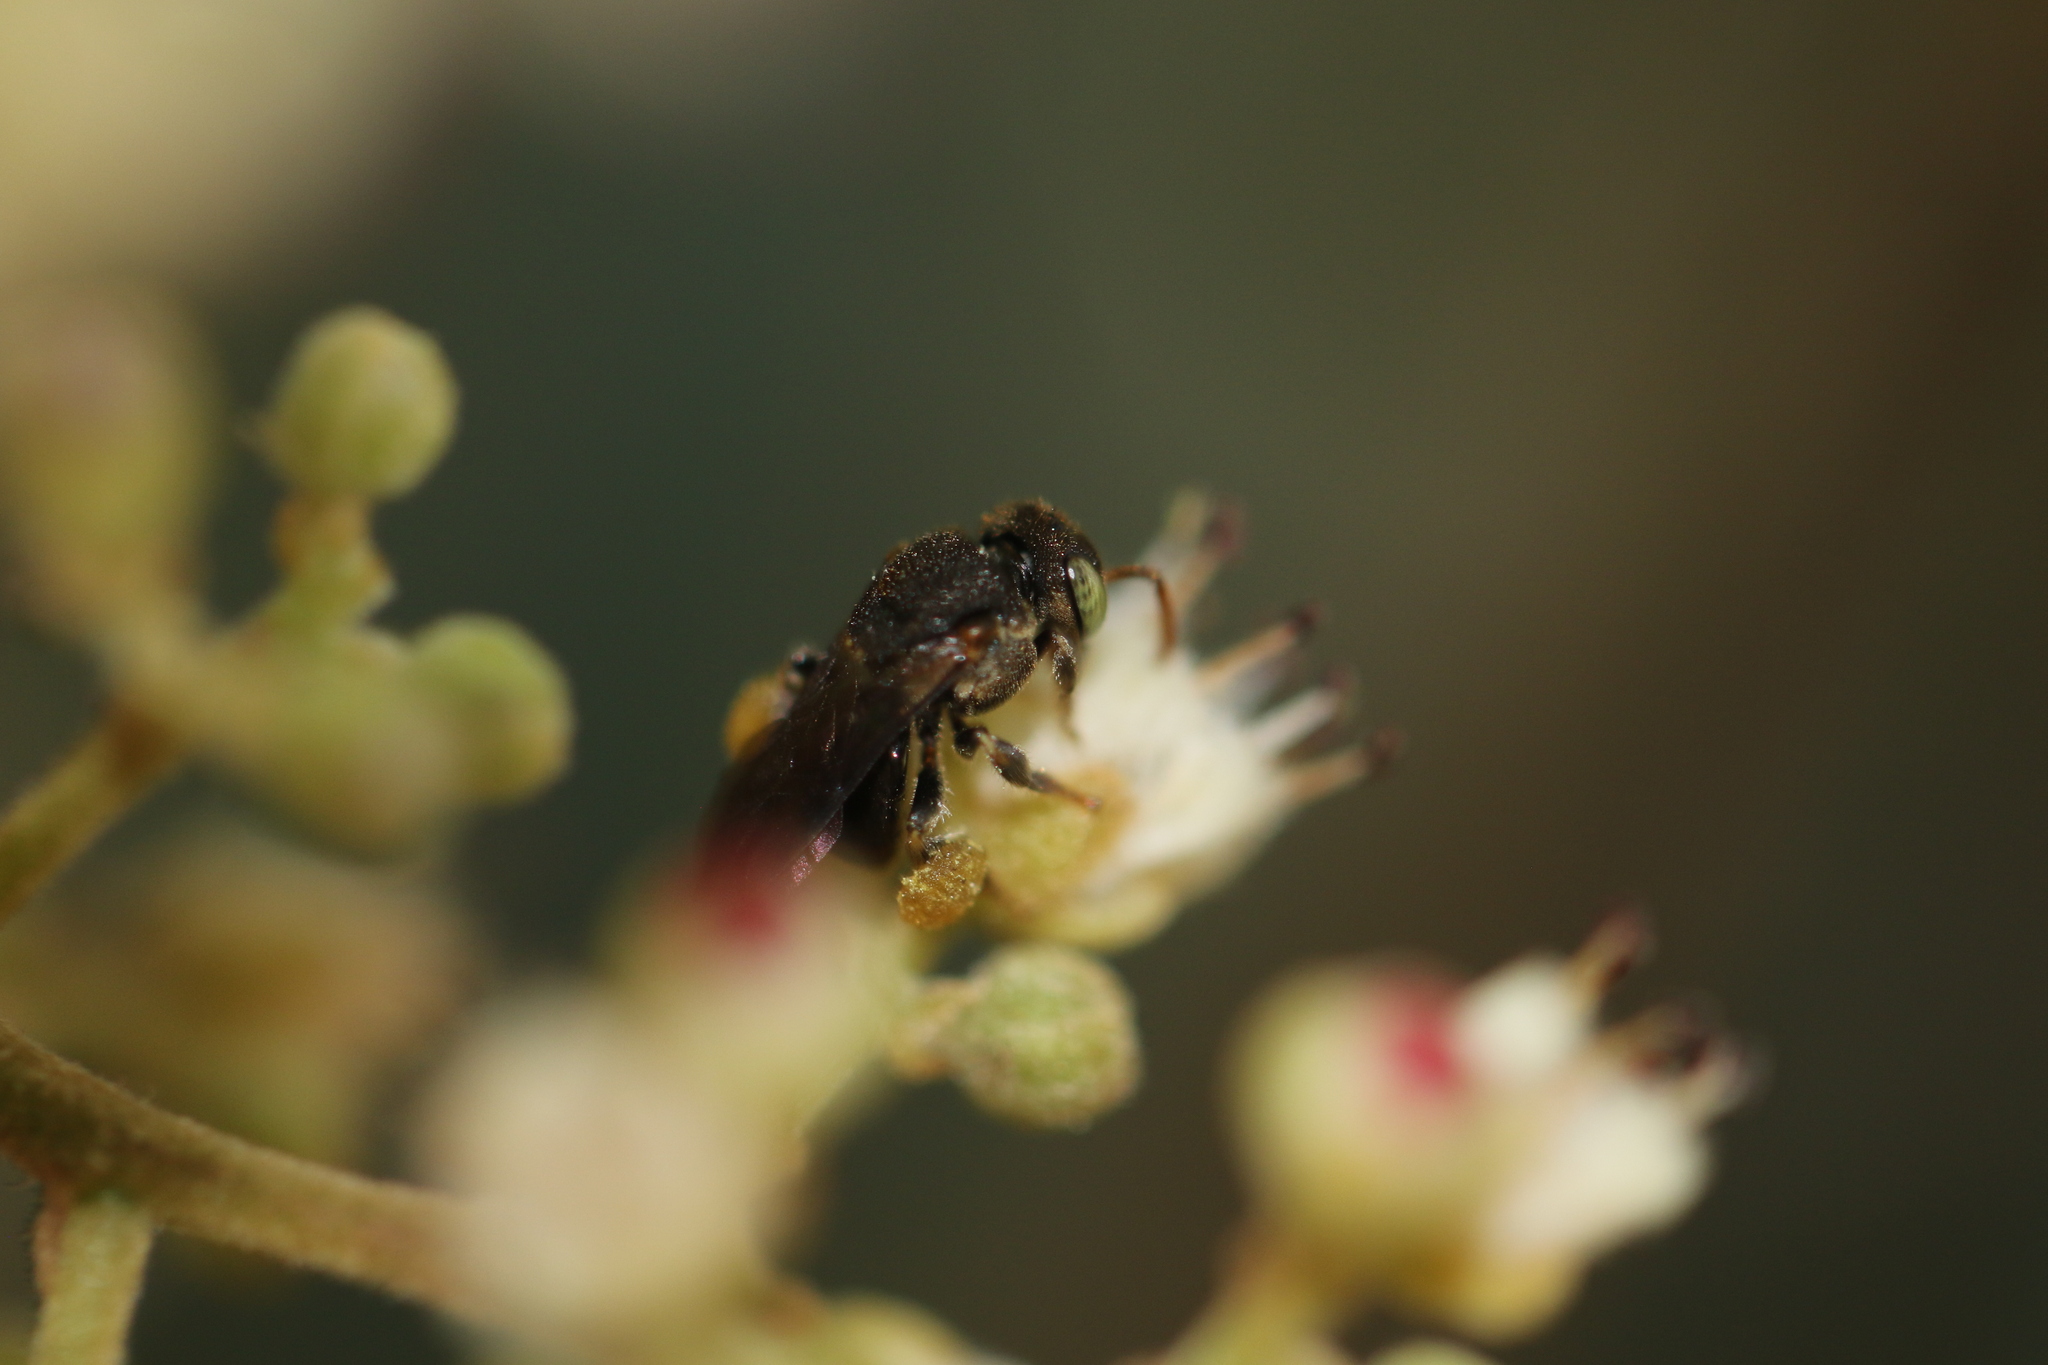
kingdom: Animalia
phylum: Arthropoda
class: Insecta
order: Hymenoptera
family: Apidae
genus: Nannotrigona
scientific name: Nannotrigona testaceicornis
